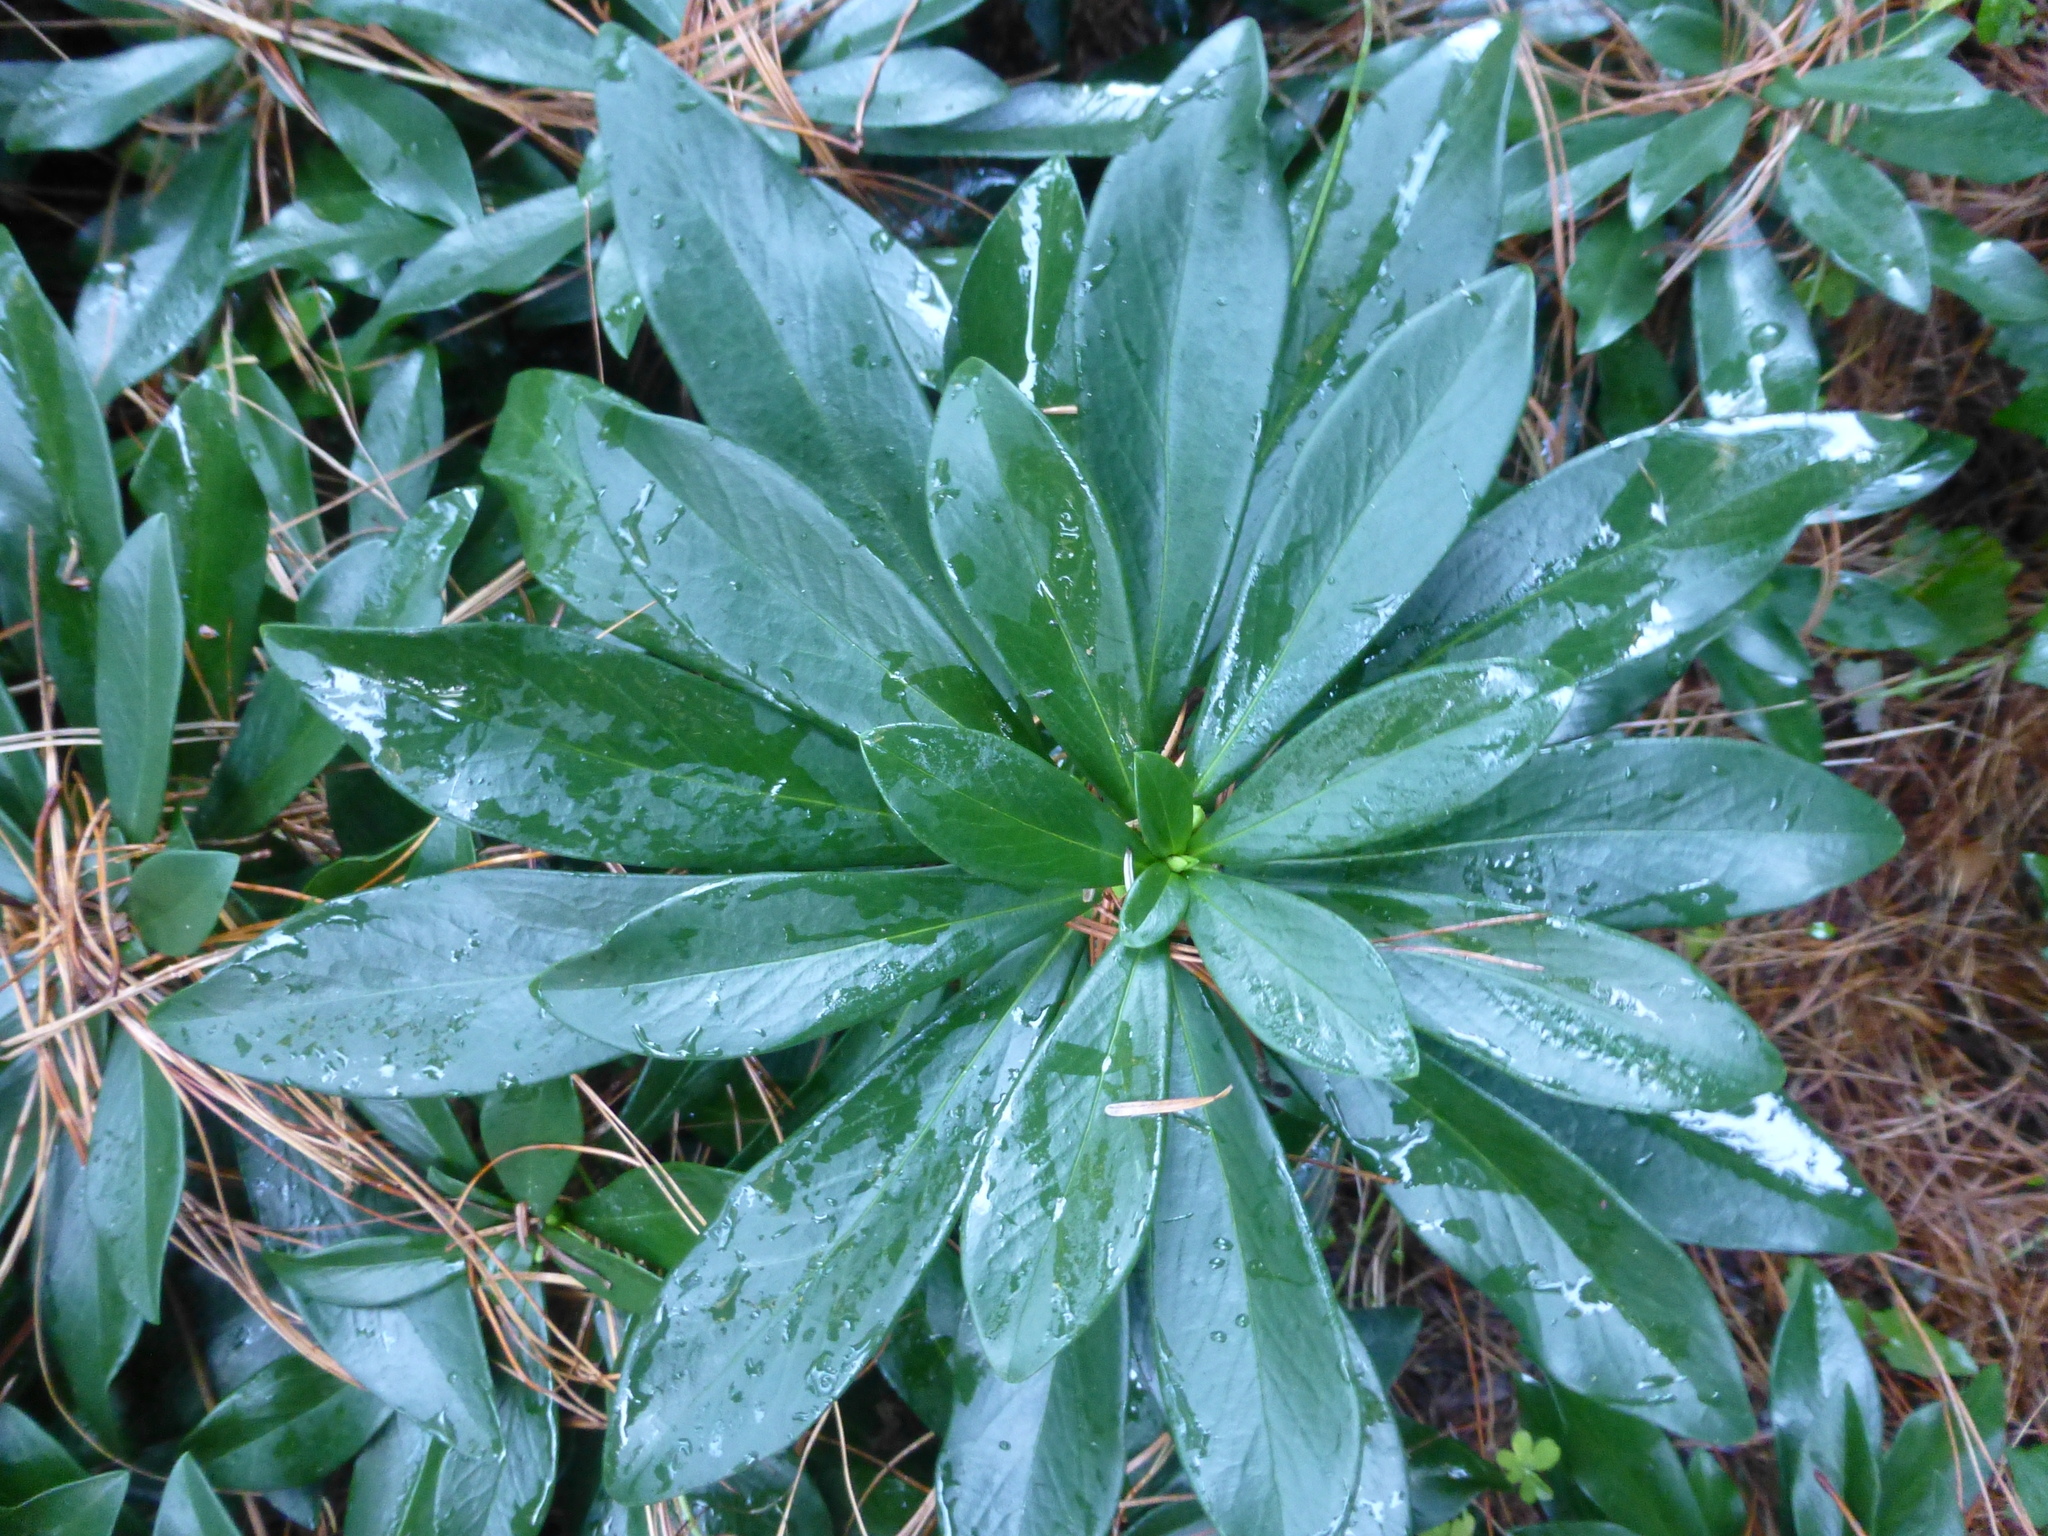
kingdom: Plantae
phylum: Tracheophyta
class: Magnoliopsida
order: Malvales
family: Thymelaeaceae
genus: Daphne
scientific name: Daphne laureola
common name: Spurge-laurel
